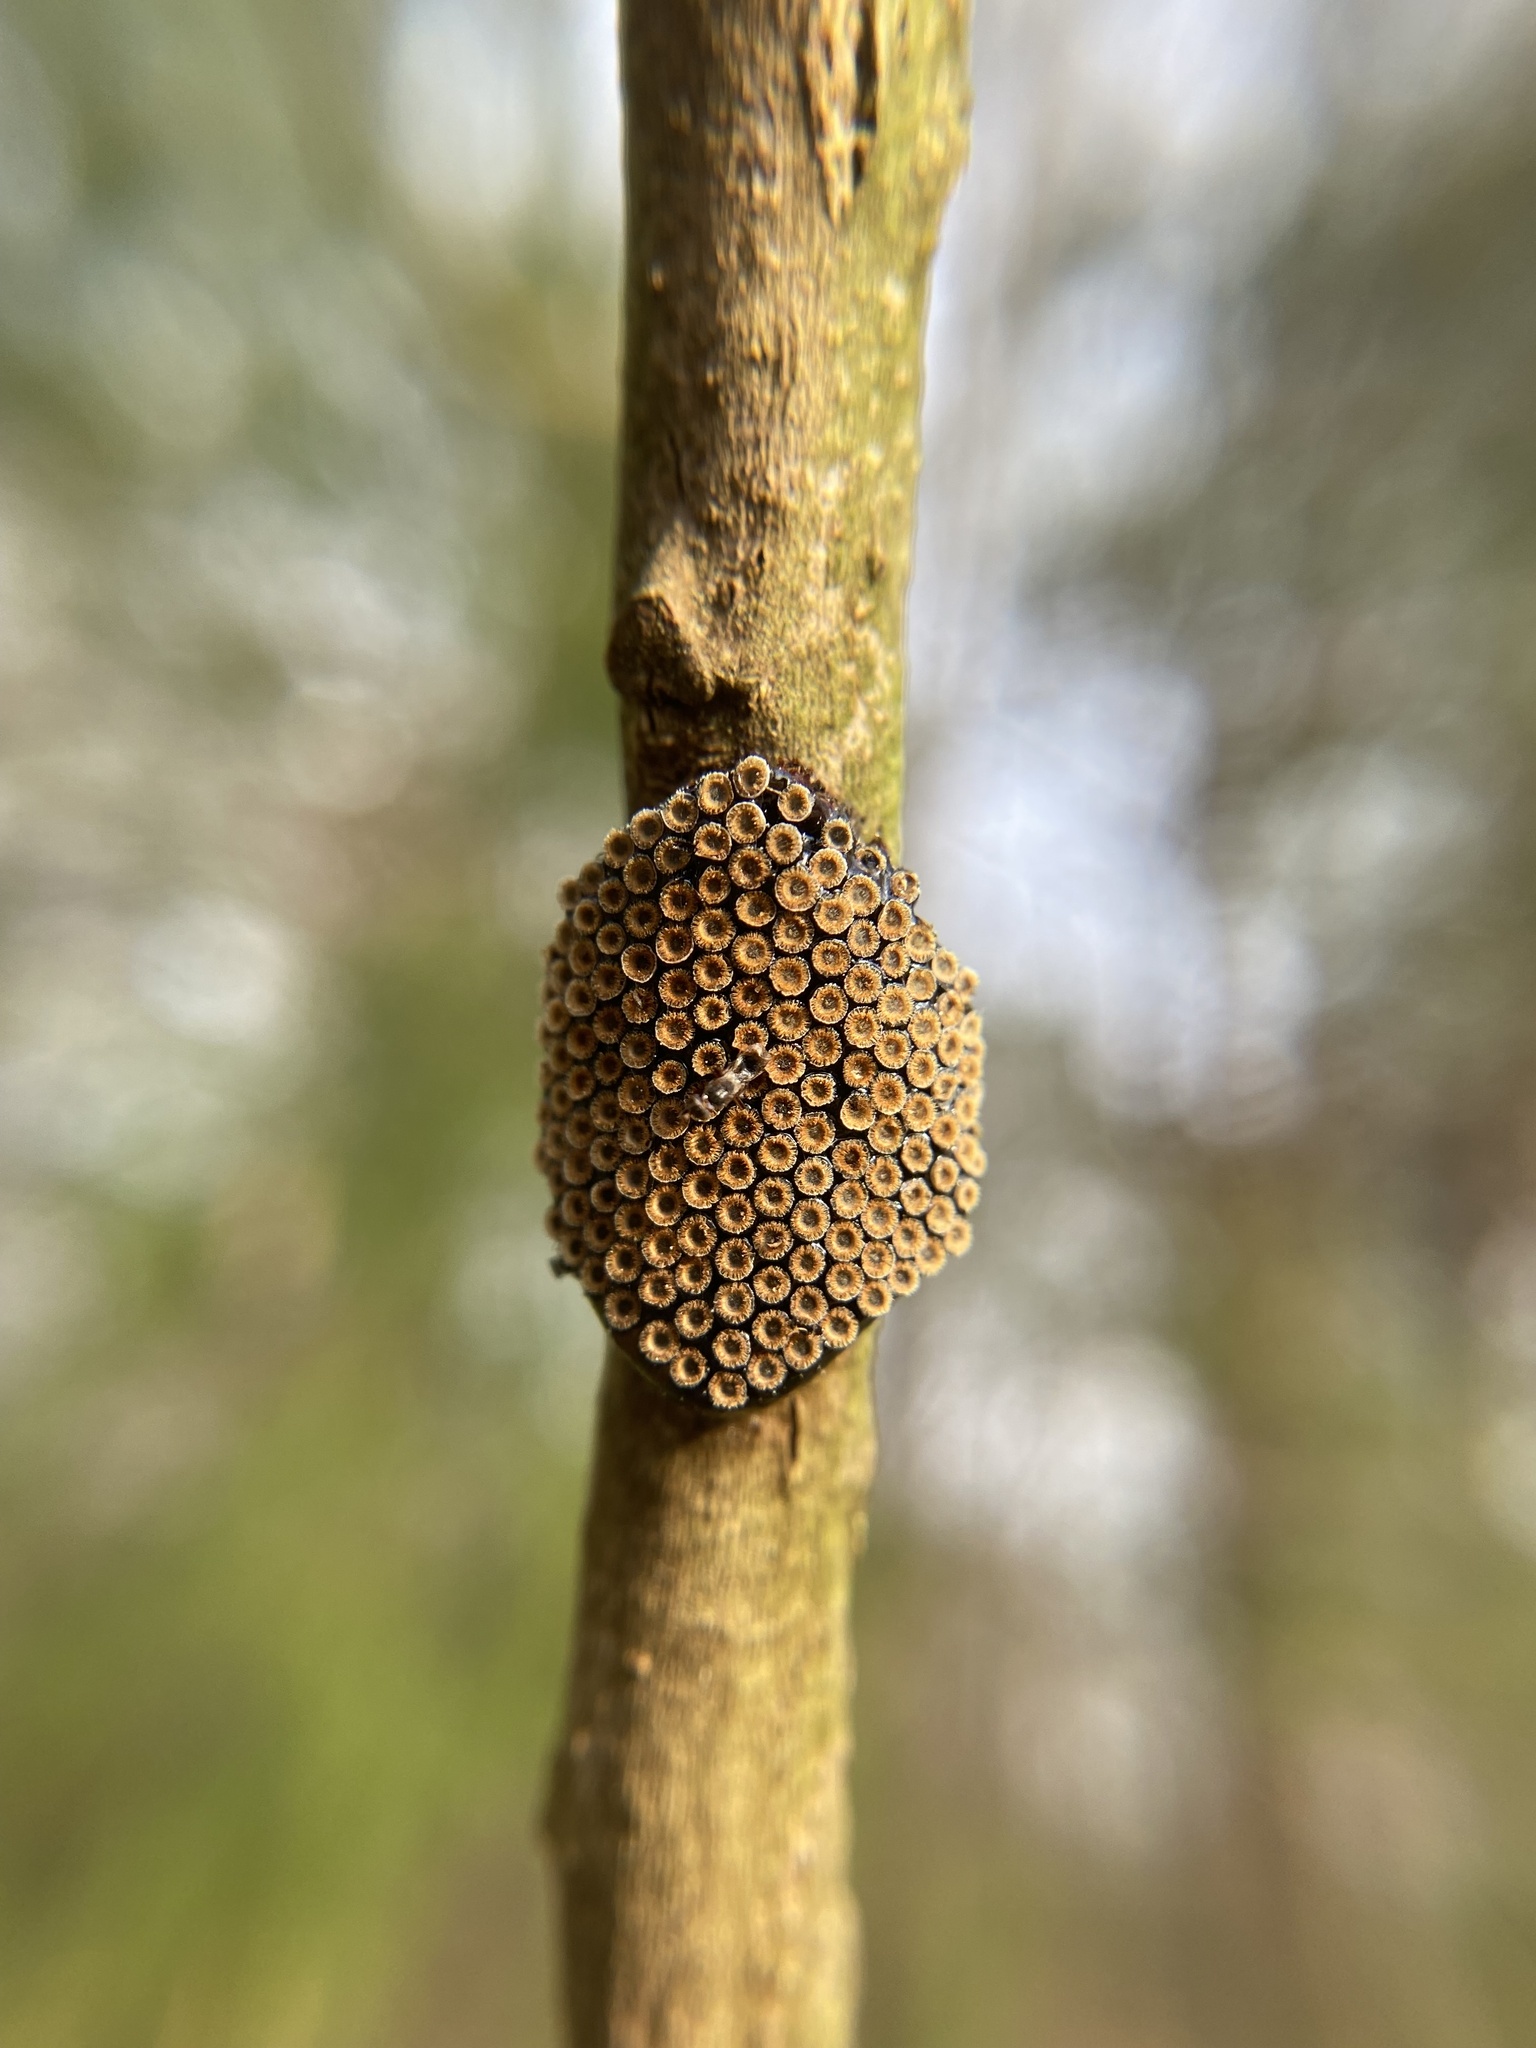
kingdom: Animalia
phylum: Arthropoda
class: Insecta
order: Hemiptera
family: Reduviidae
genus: Arilus
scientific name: Arilus cristatus
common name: North american wheel bug
